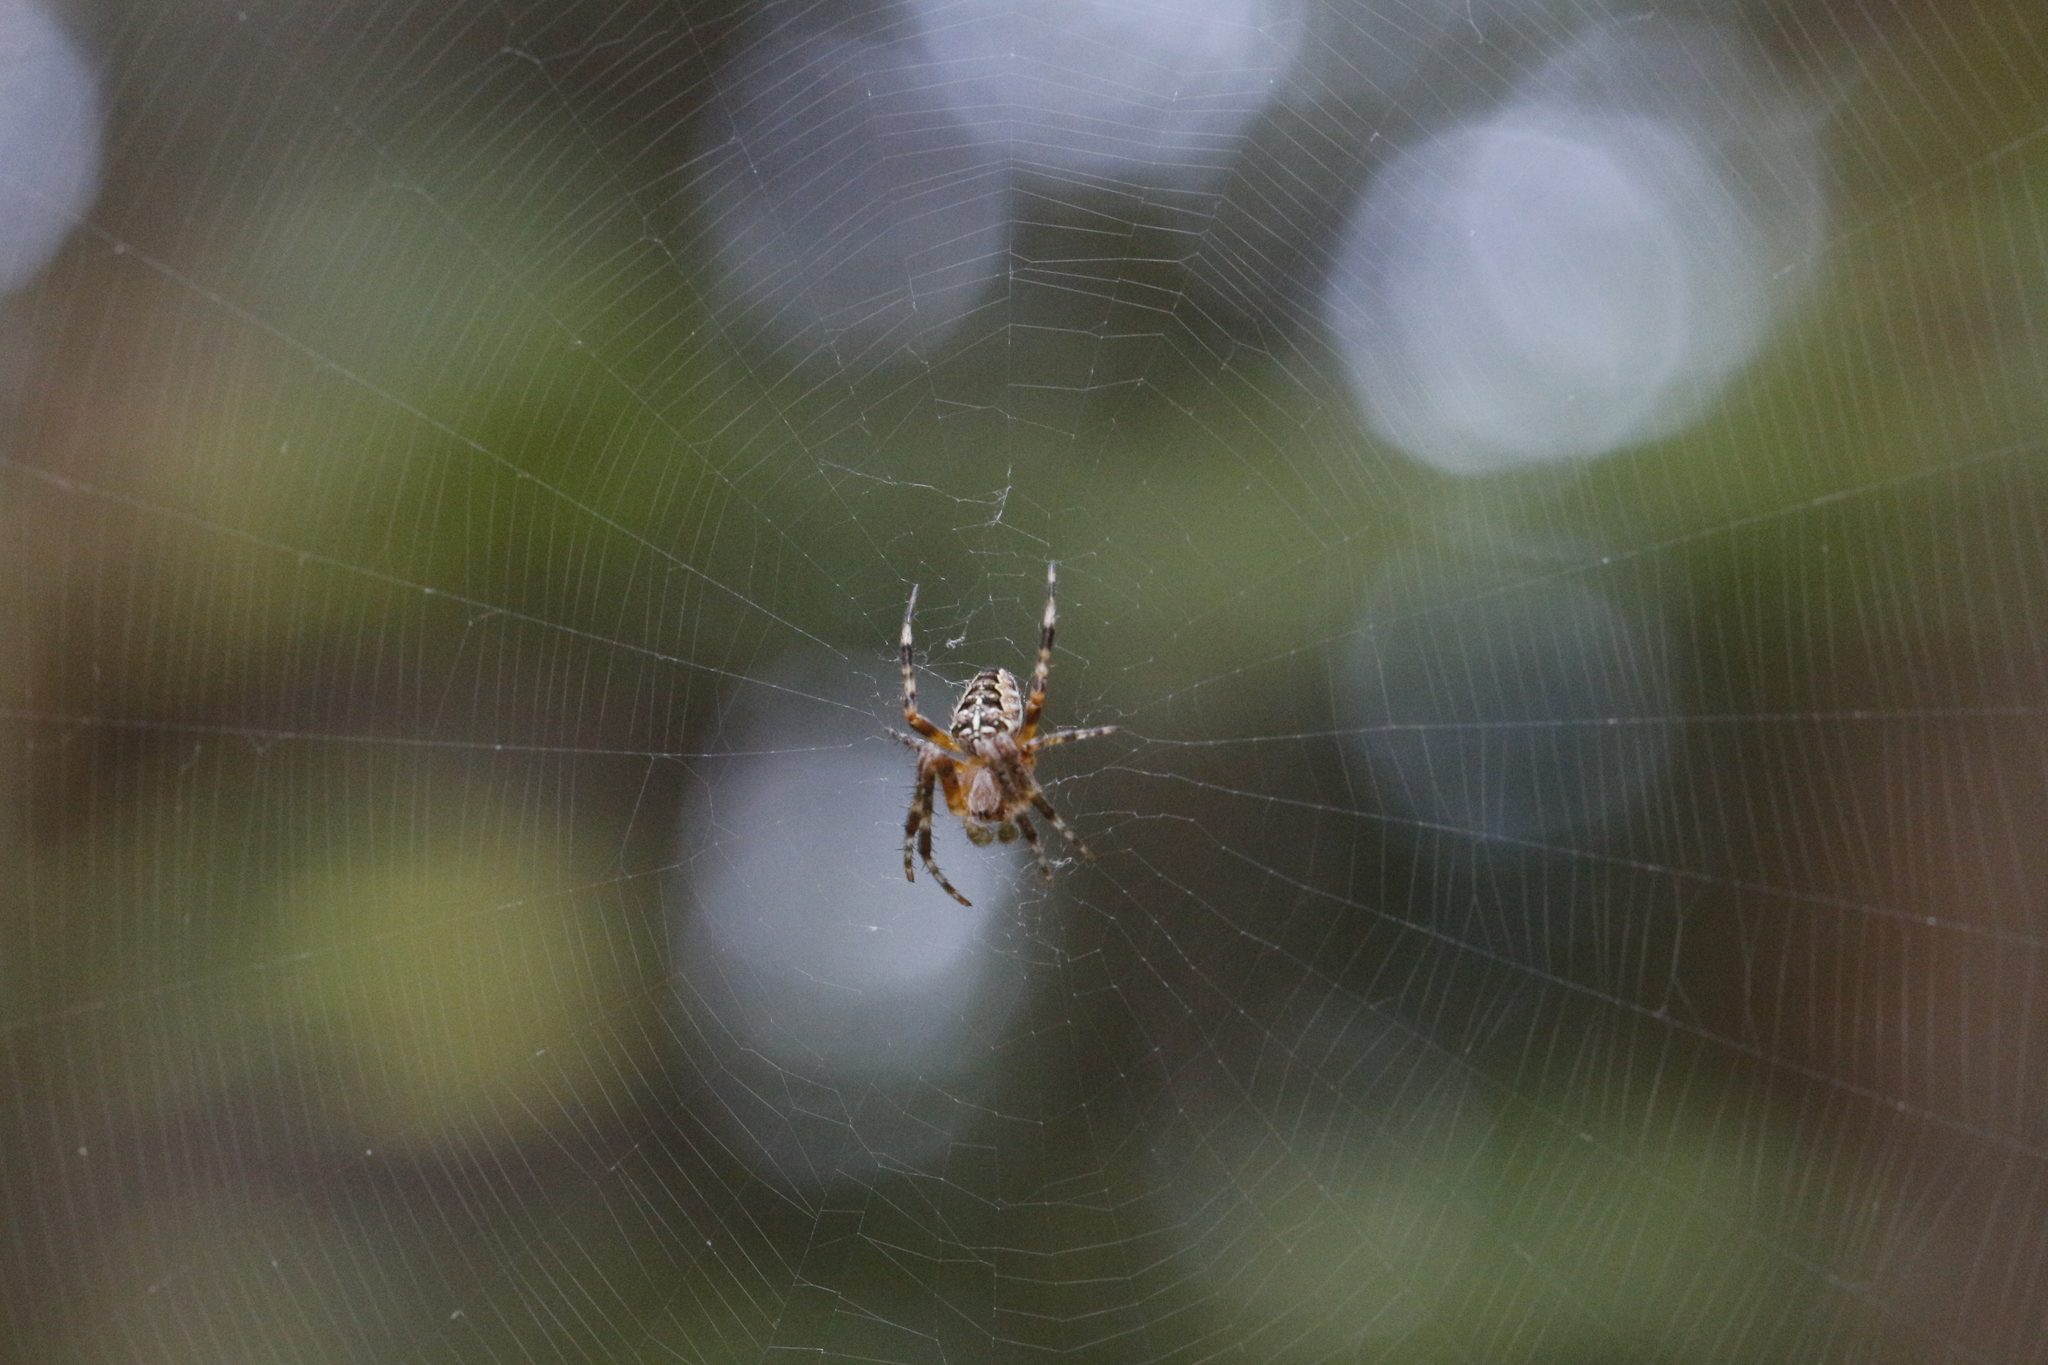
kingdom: Animalia
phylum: Arthropoda
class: Arachnida
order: Araneae
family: Araneidae
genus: Araneus
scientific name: Araneus diadematus
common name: Cross orbweaver
